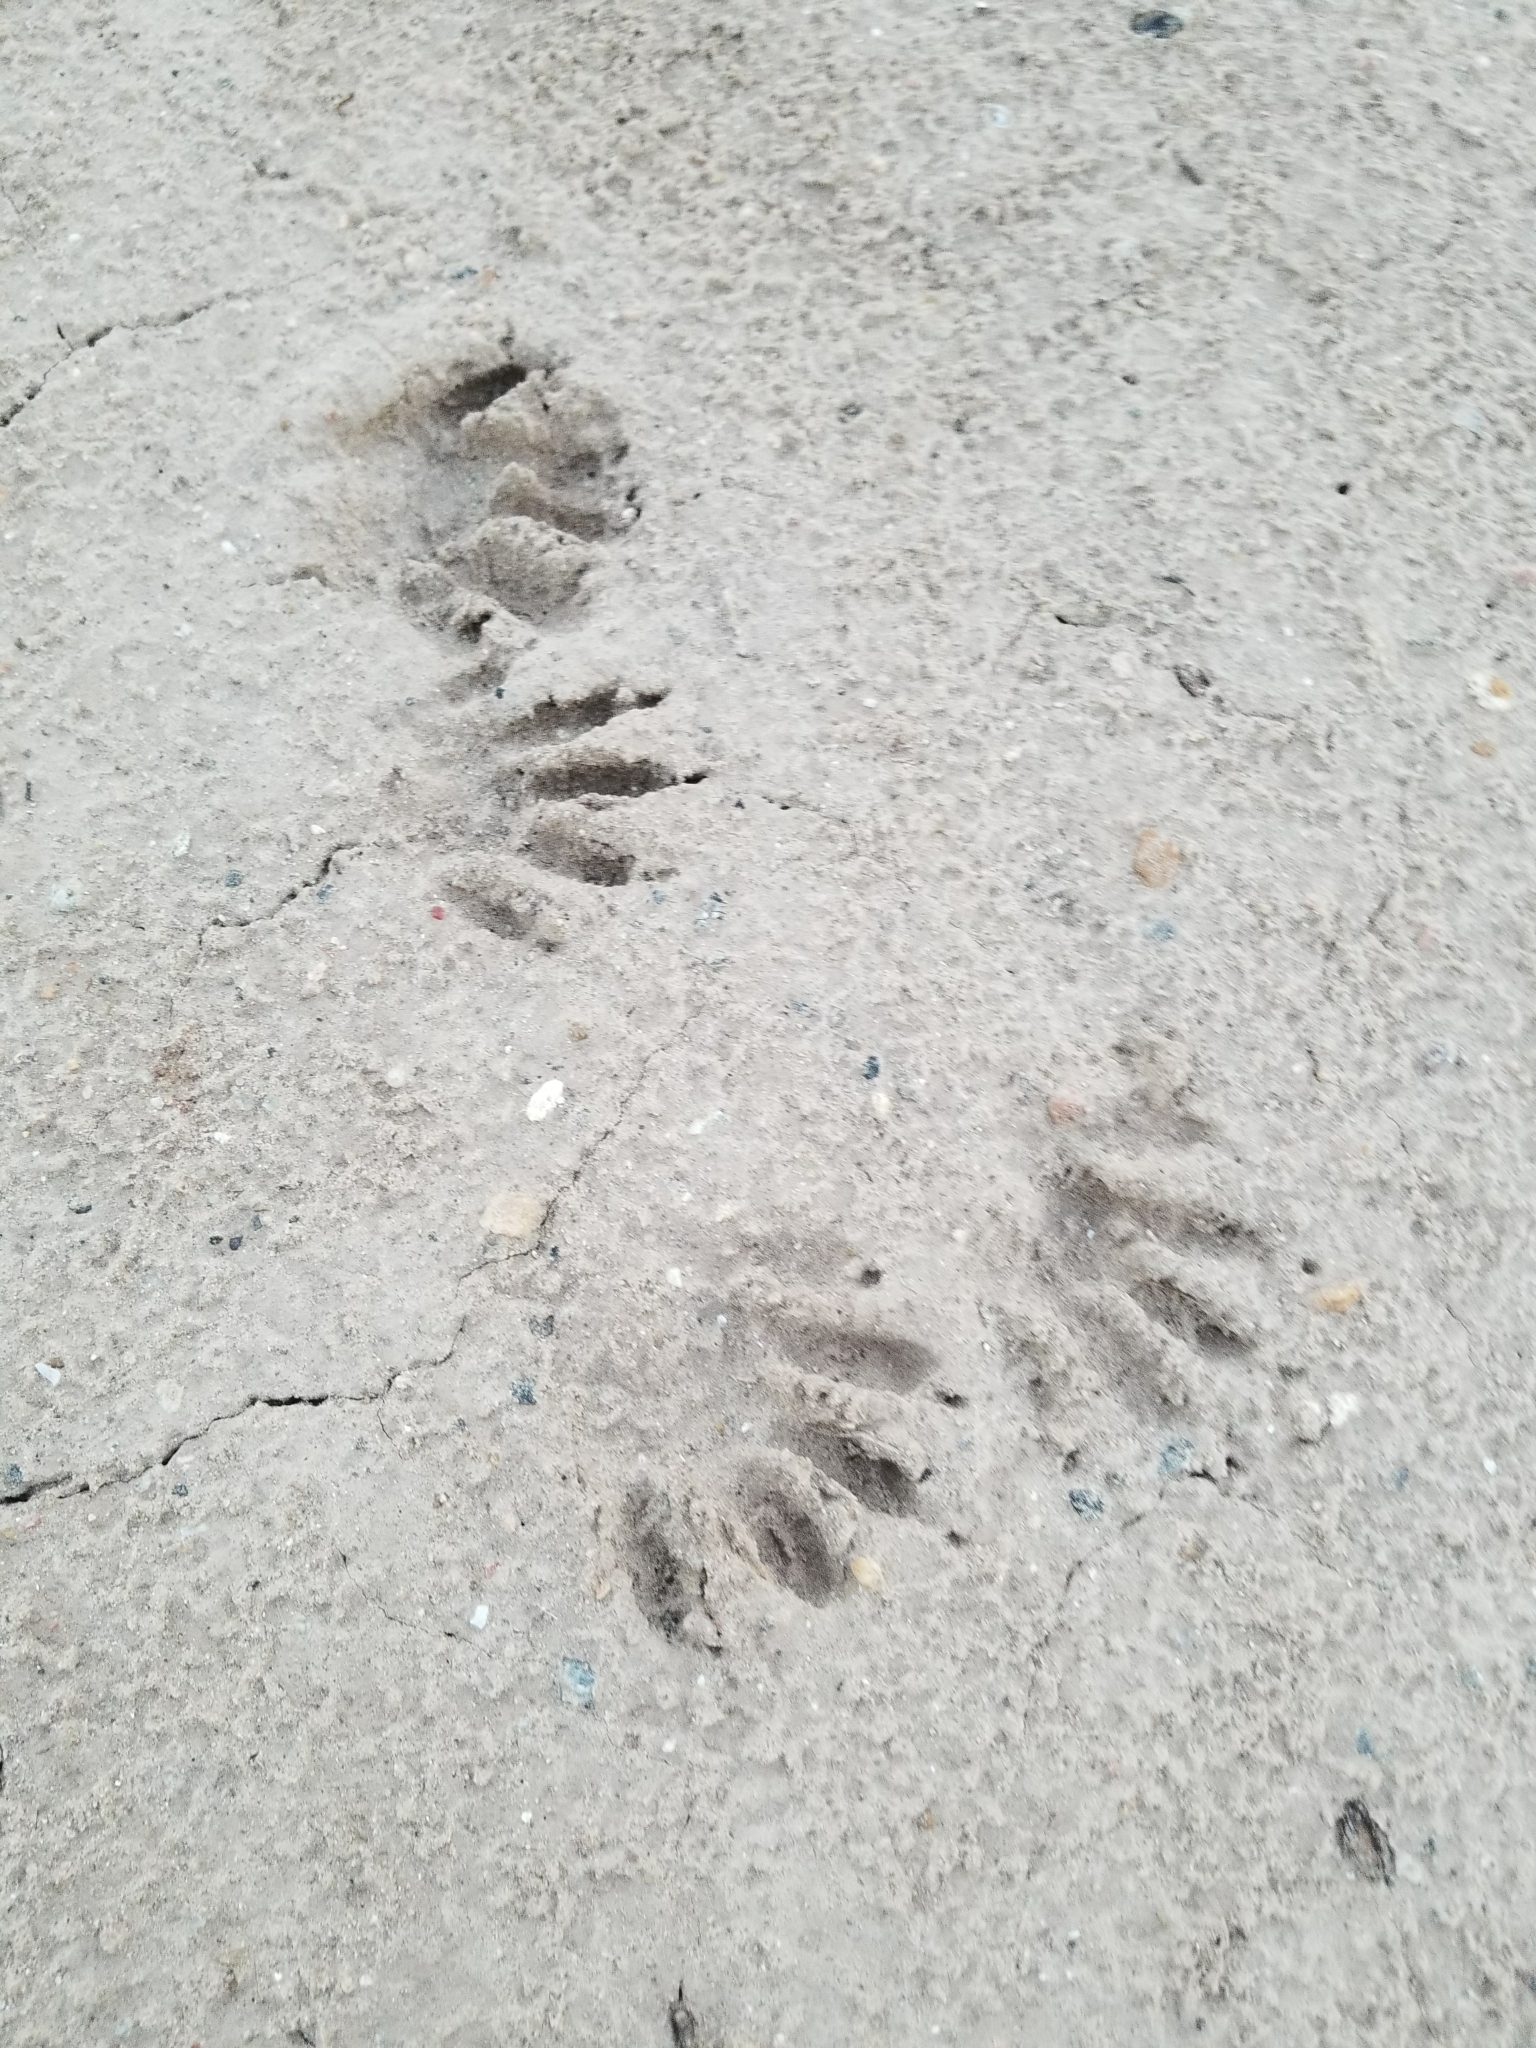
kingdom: Animalia
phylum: Chordata
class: Mammalia
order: Carnivora
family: Procyonidae
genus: Procyon
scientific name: Procyon lotor
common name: Raccoon
